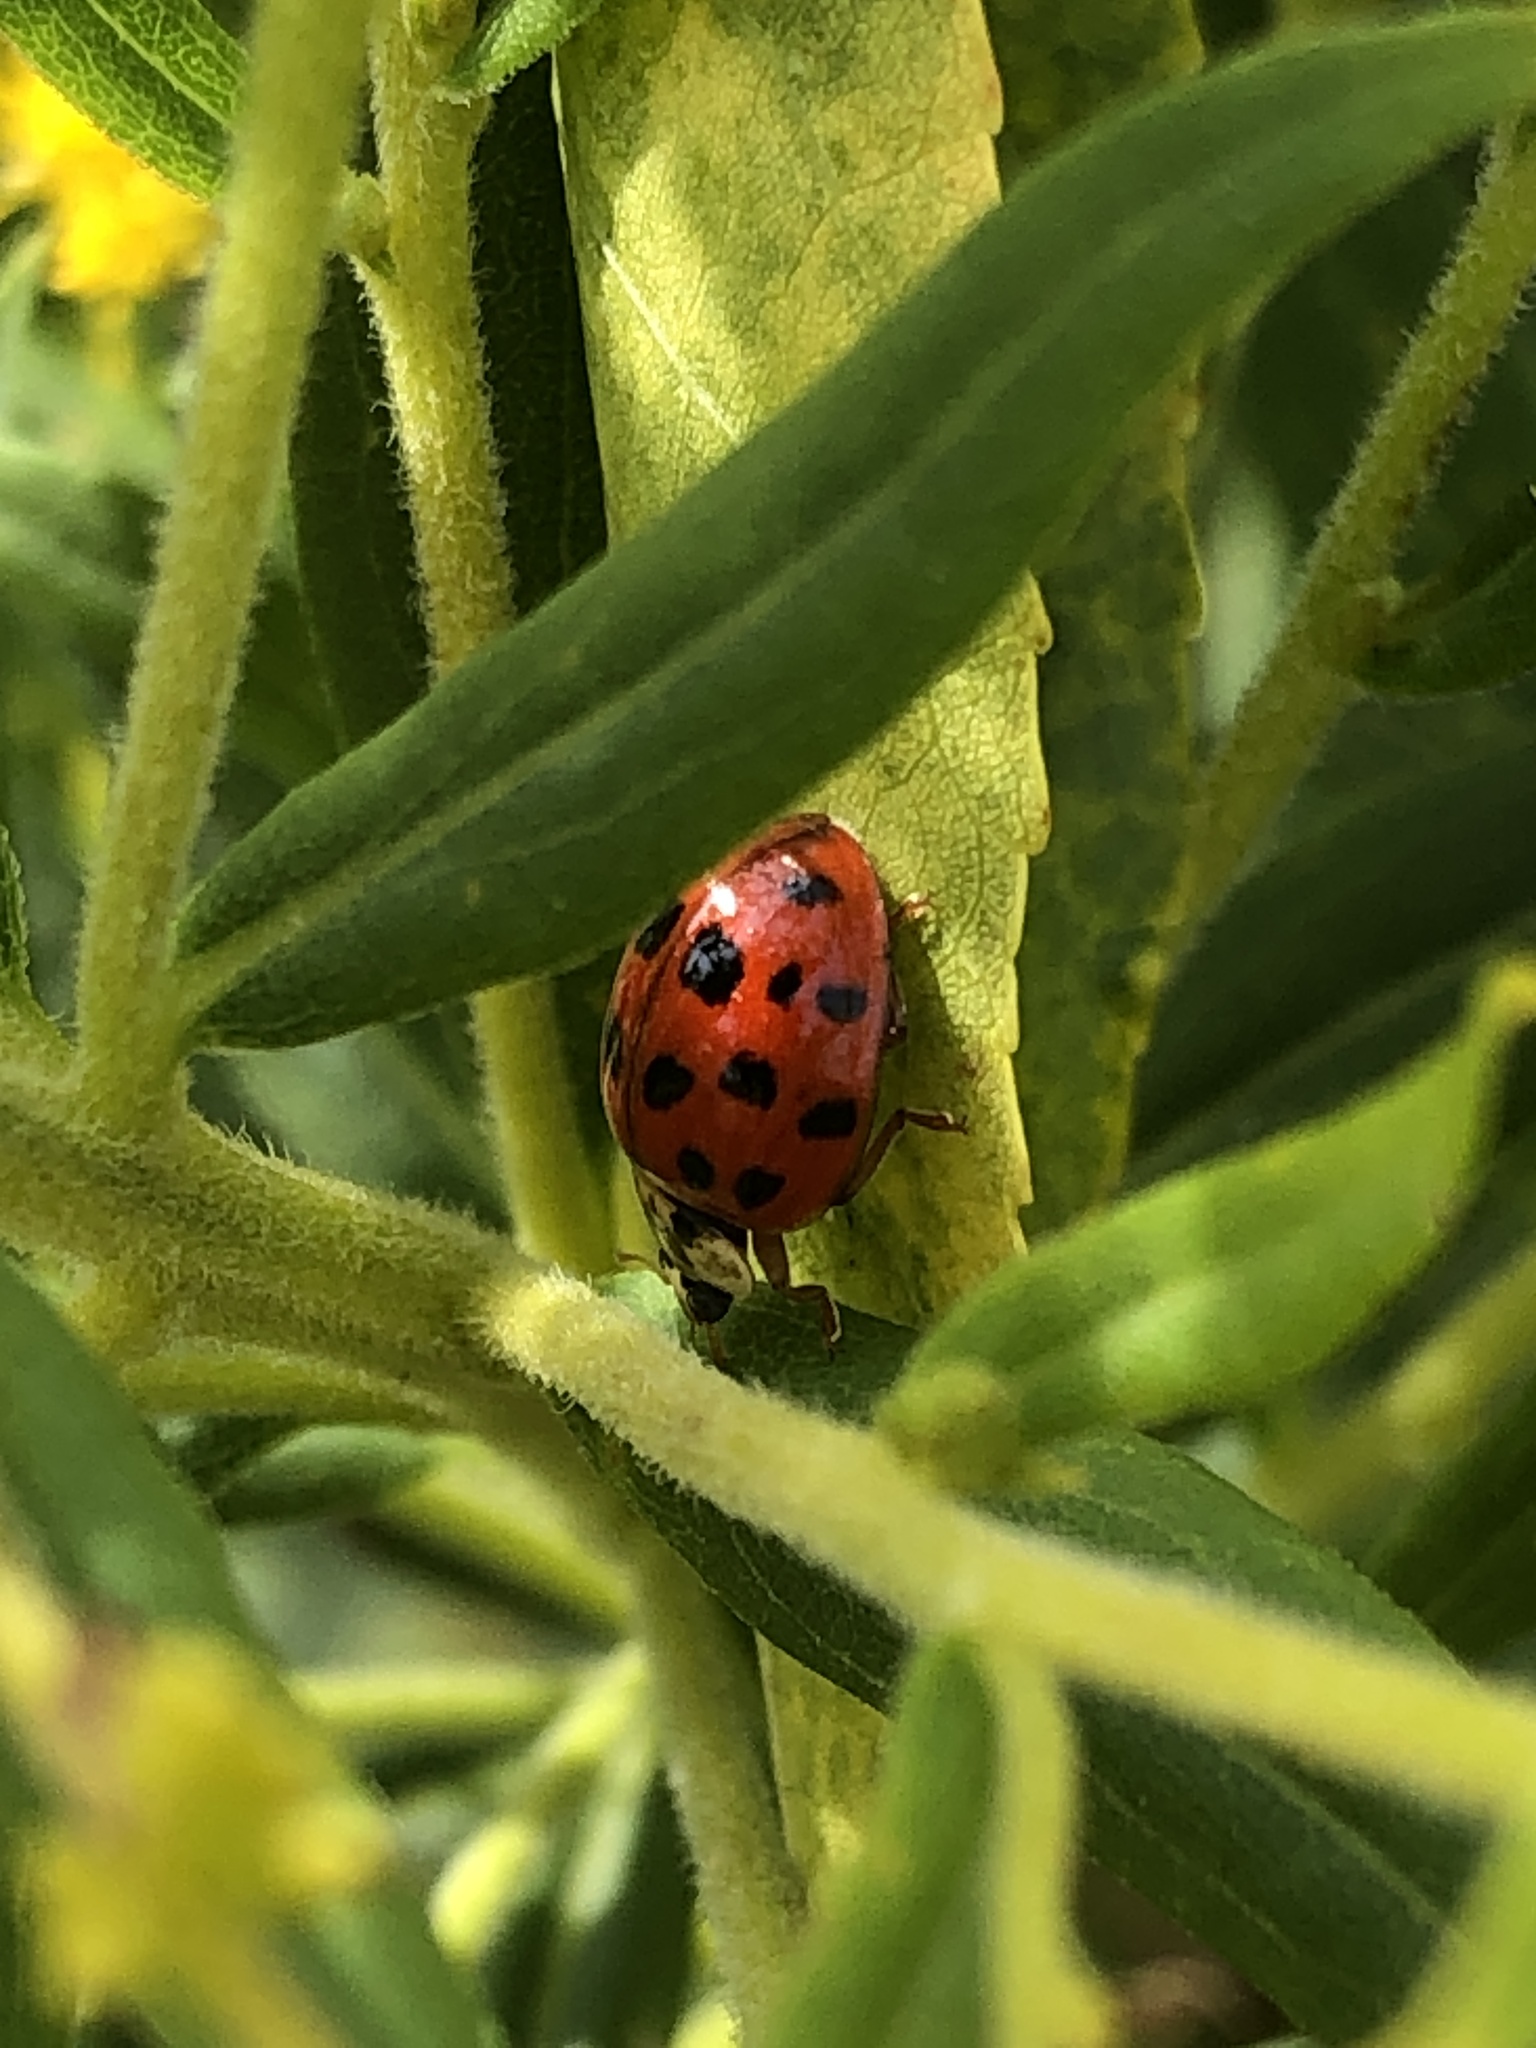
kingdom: Animalia
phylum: Arthropoda
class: Insecta
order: Coleoptera
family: Coccinellidae
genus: Harmonia
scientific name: Harmonia axyridis
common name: Harlequin ladybird
